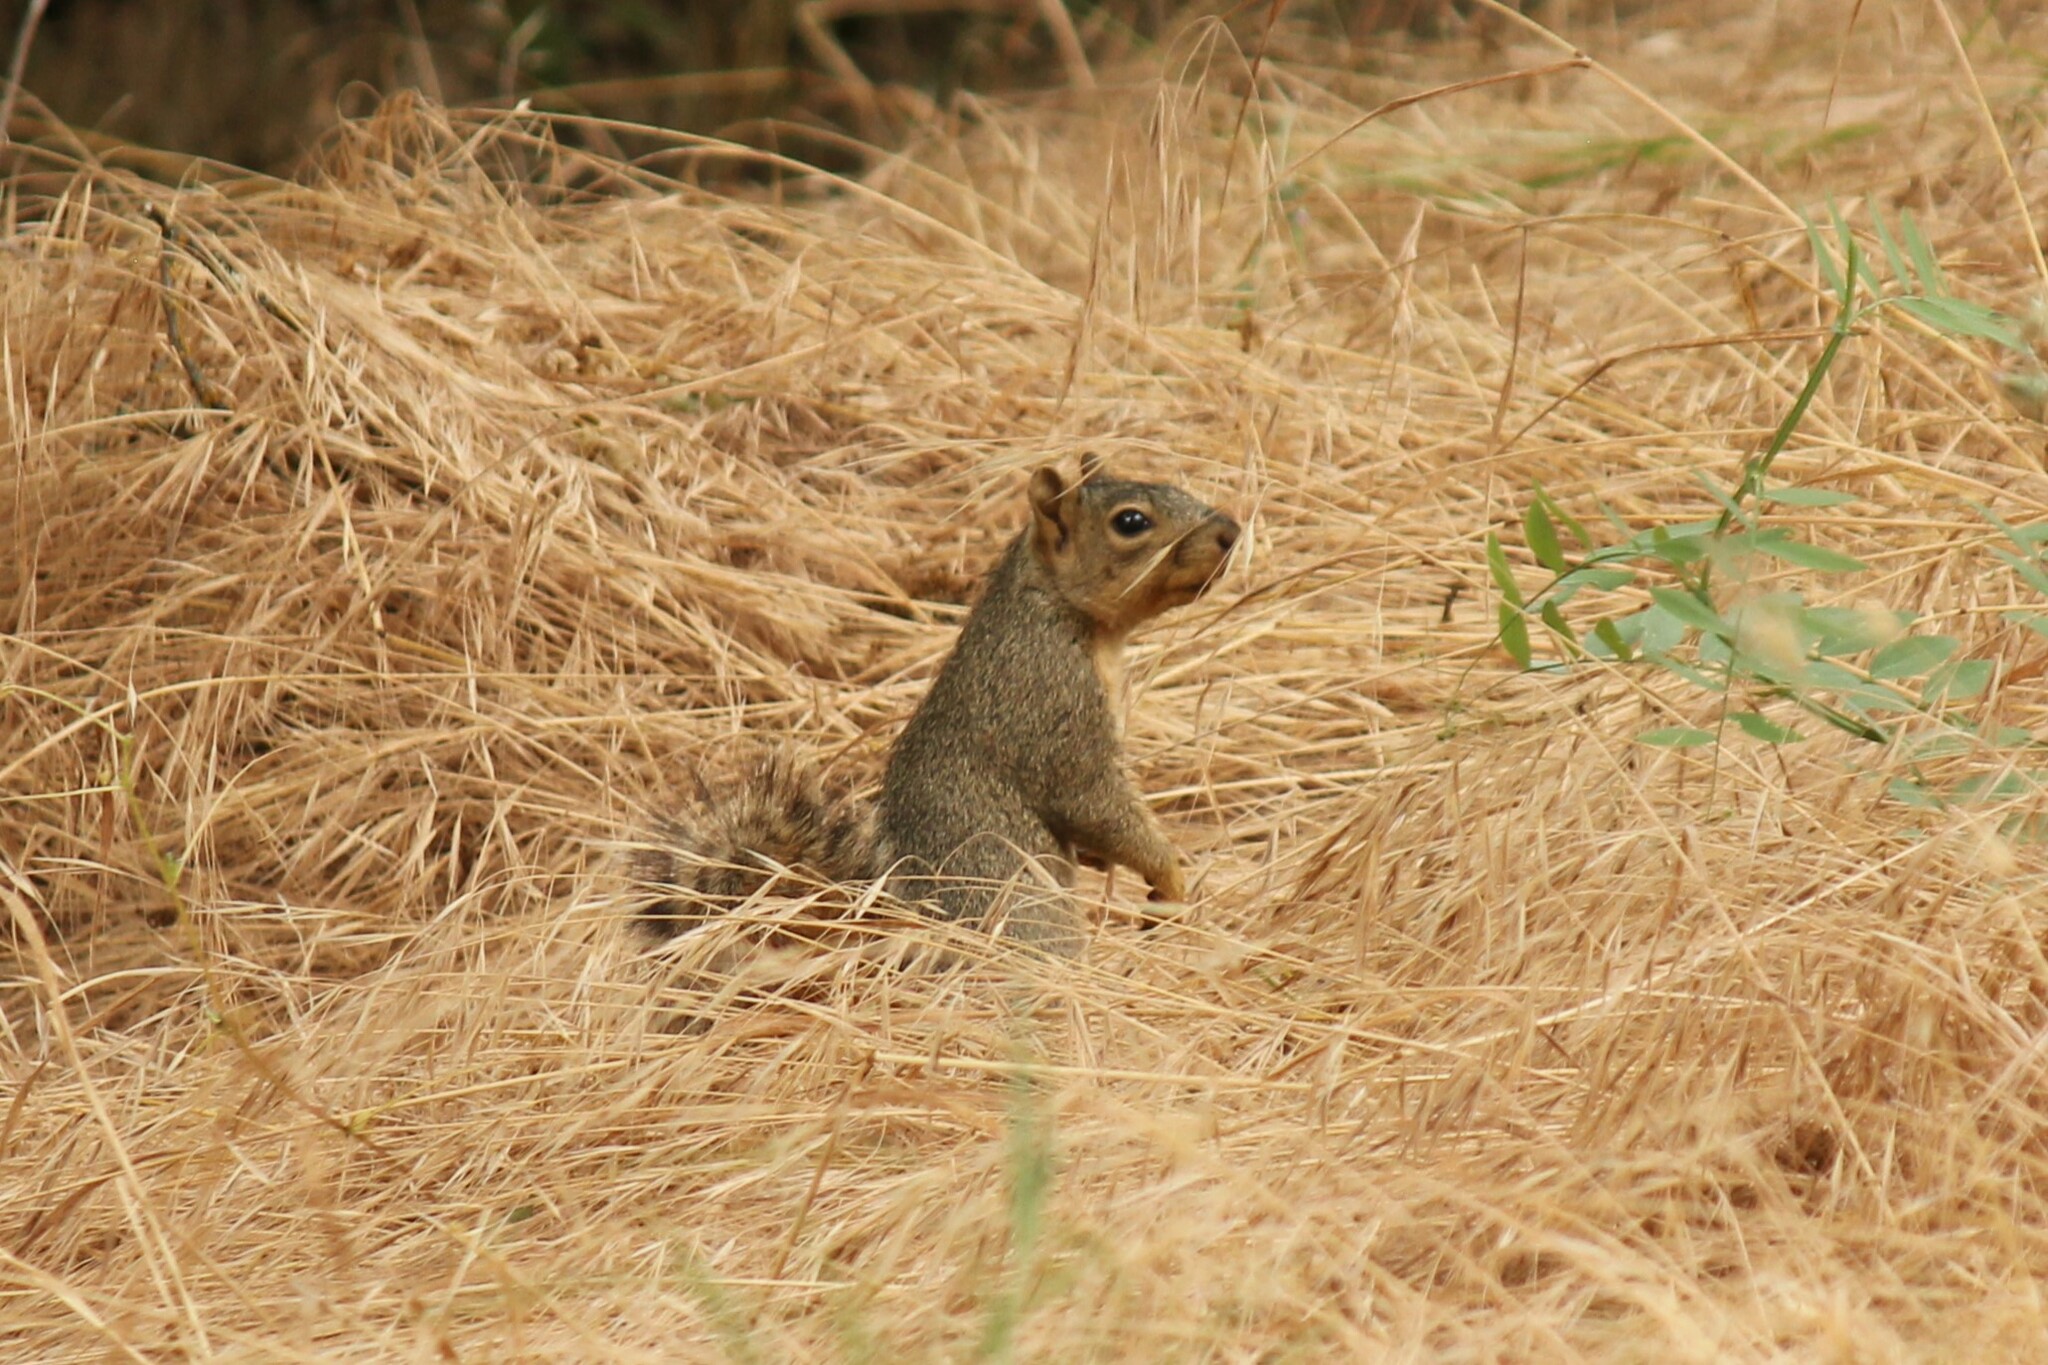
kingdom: Animalia
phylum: Chordata
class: Mammalia
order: Rodentia
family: Sciuridae
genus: Sciurus
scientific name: Sciurus niger
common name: Fox squirrel
